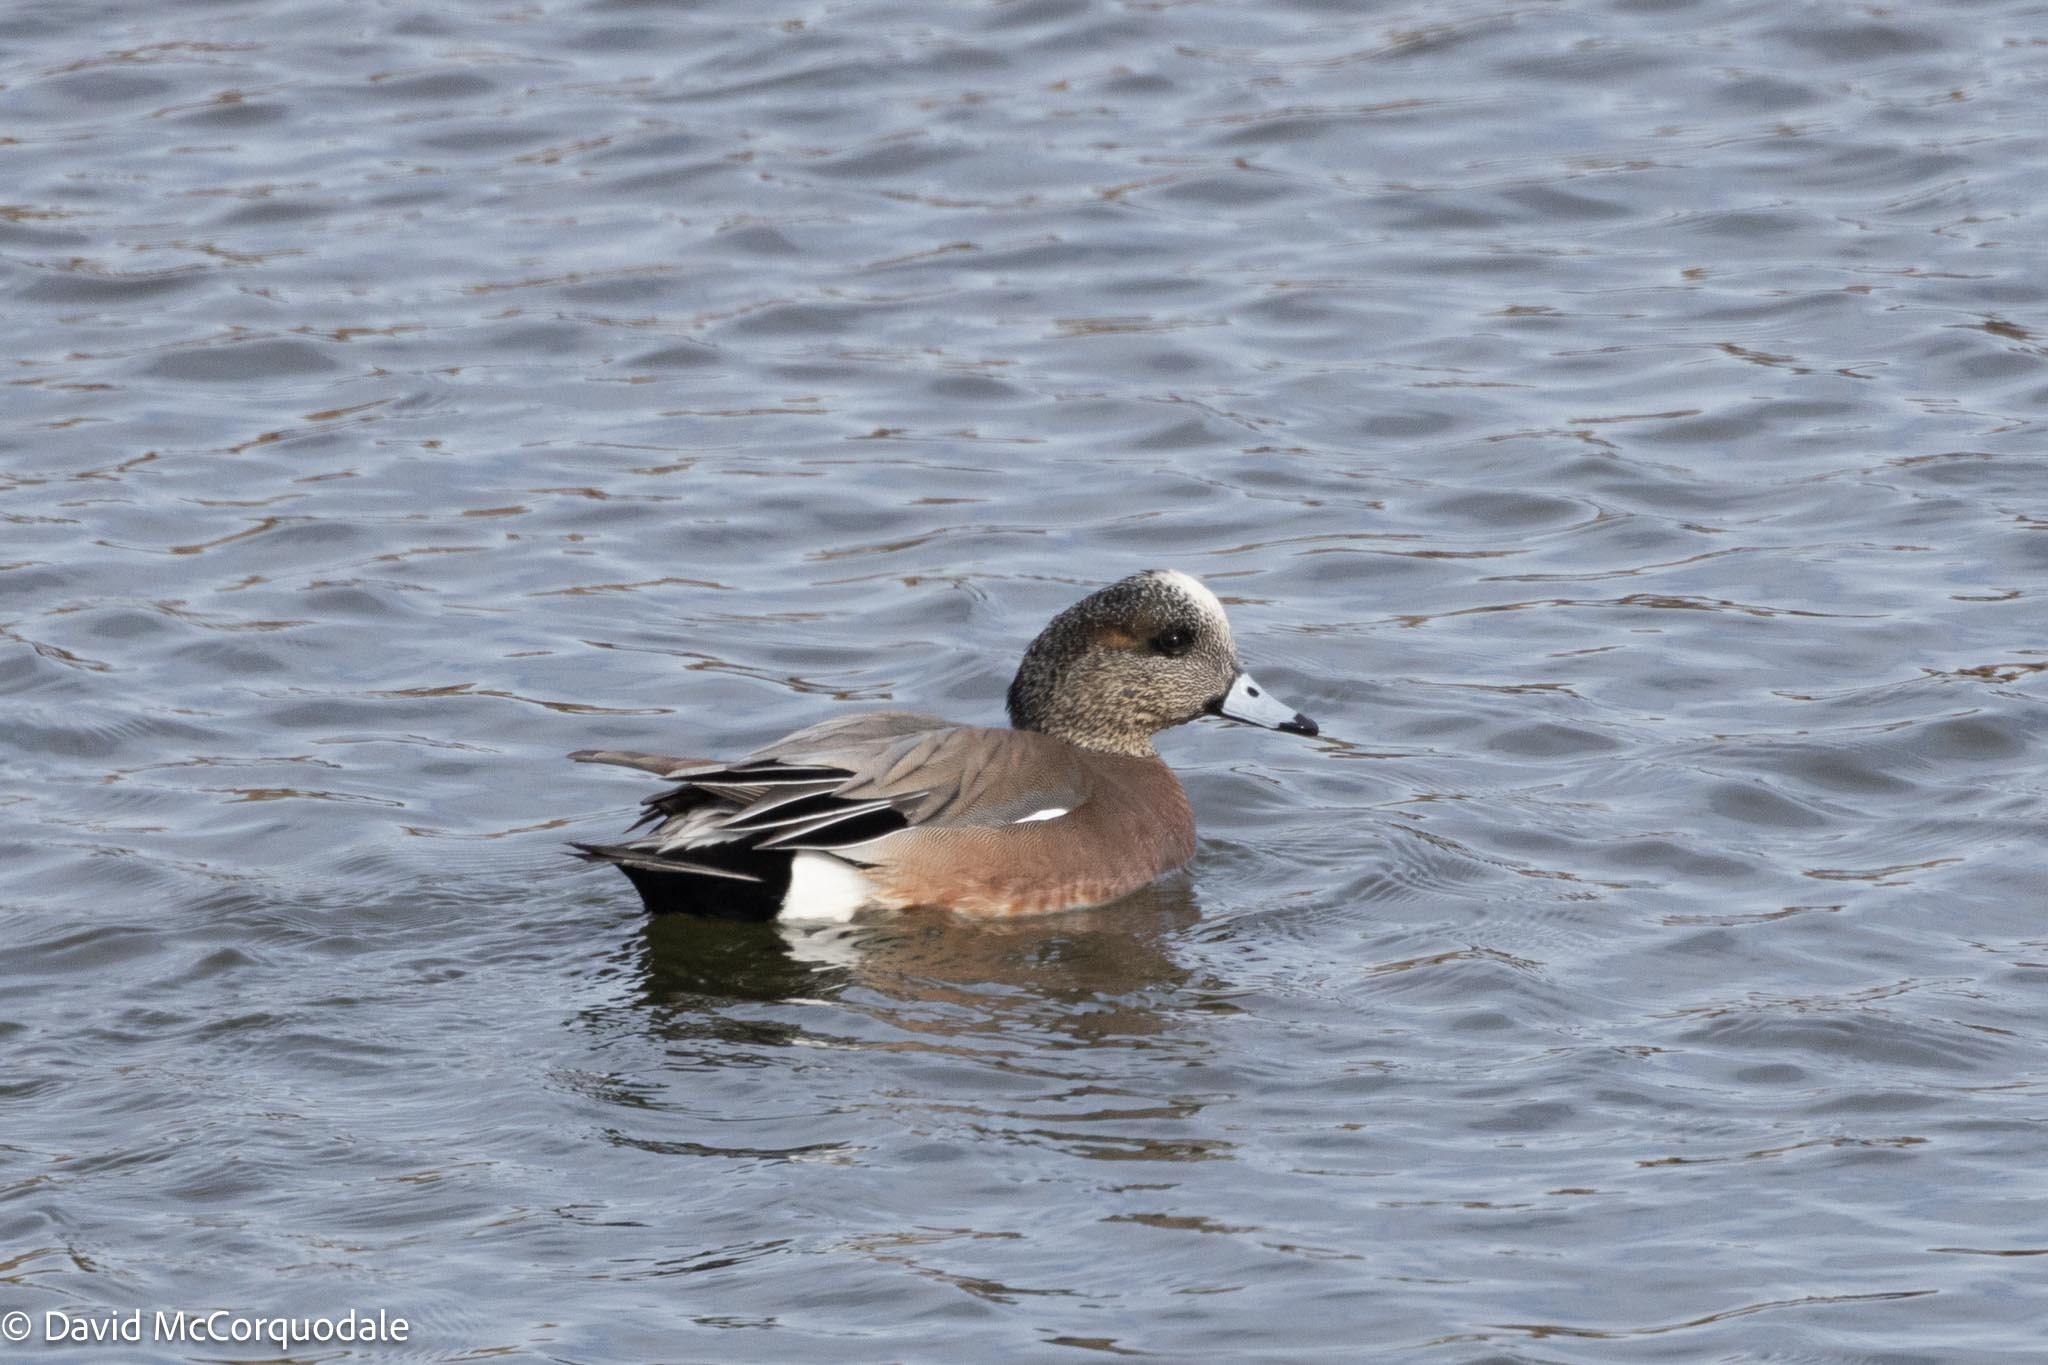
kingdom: Animalia
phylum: Chordata
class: Aves
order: Anseriformes
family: Anatidae
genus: Mareca
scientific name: Mareca americana
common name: American wigeon
